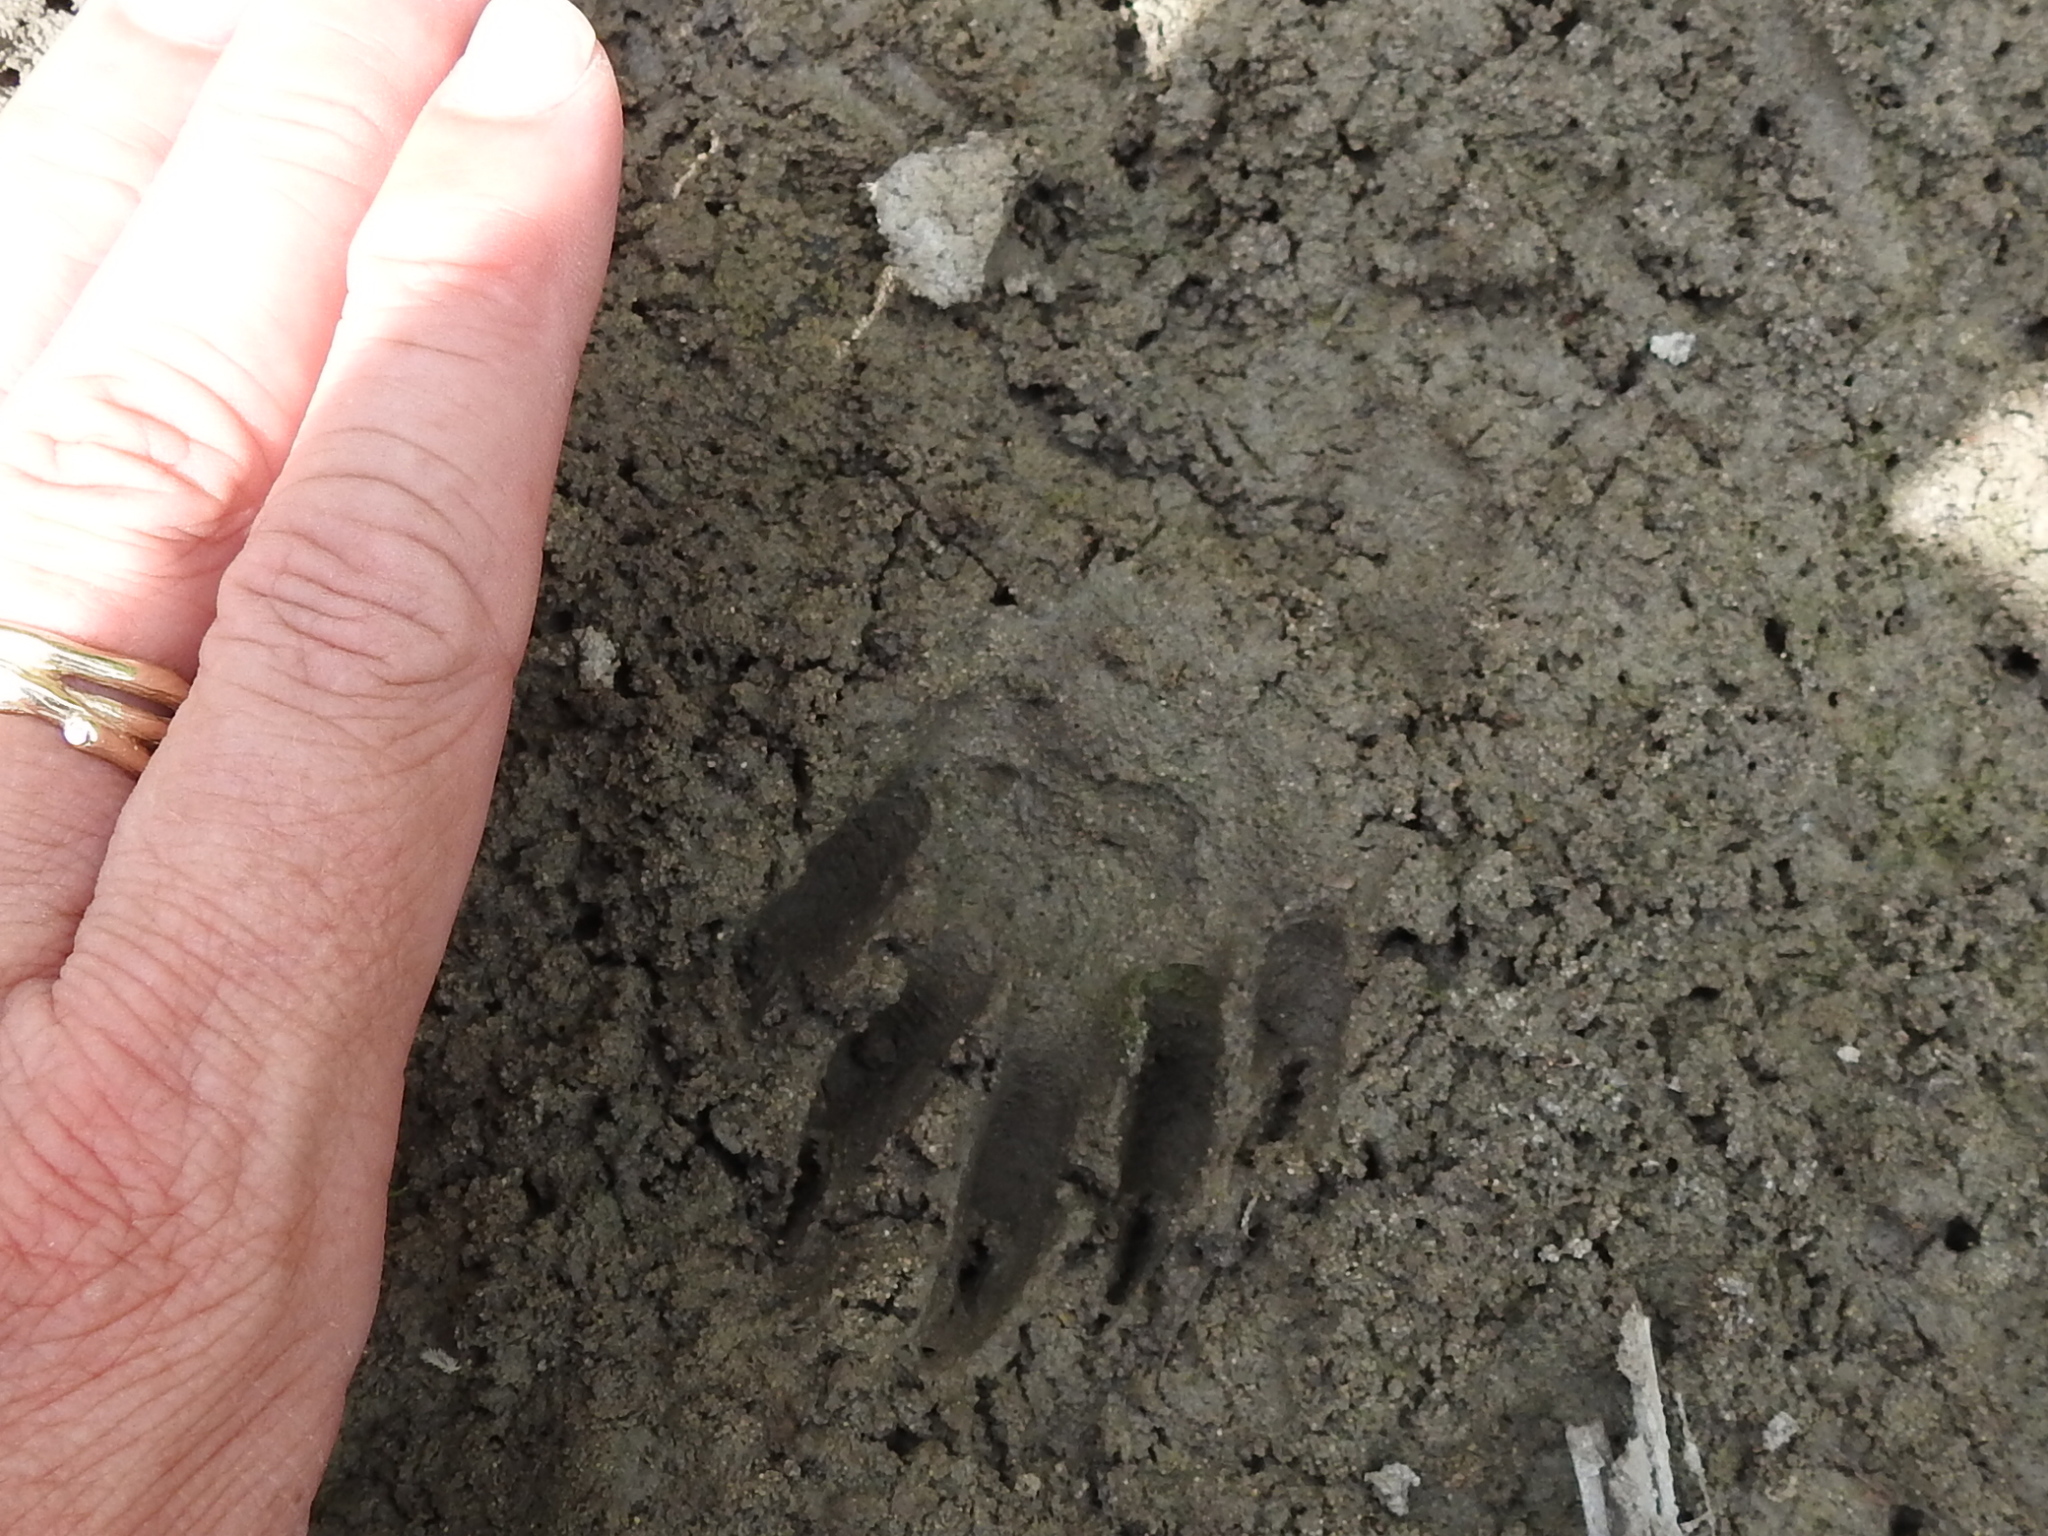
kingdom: Animalia
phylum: Chordata
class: Mammalia
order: Carnivora
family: Procyonidae
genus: Procyon
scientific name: Procyon lotor
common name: Raccoon
